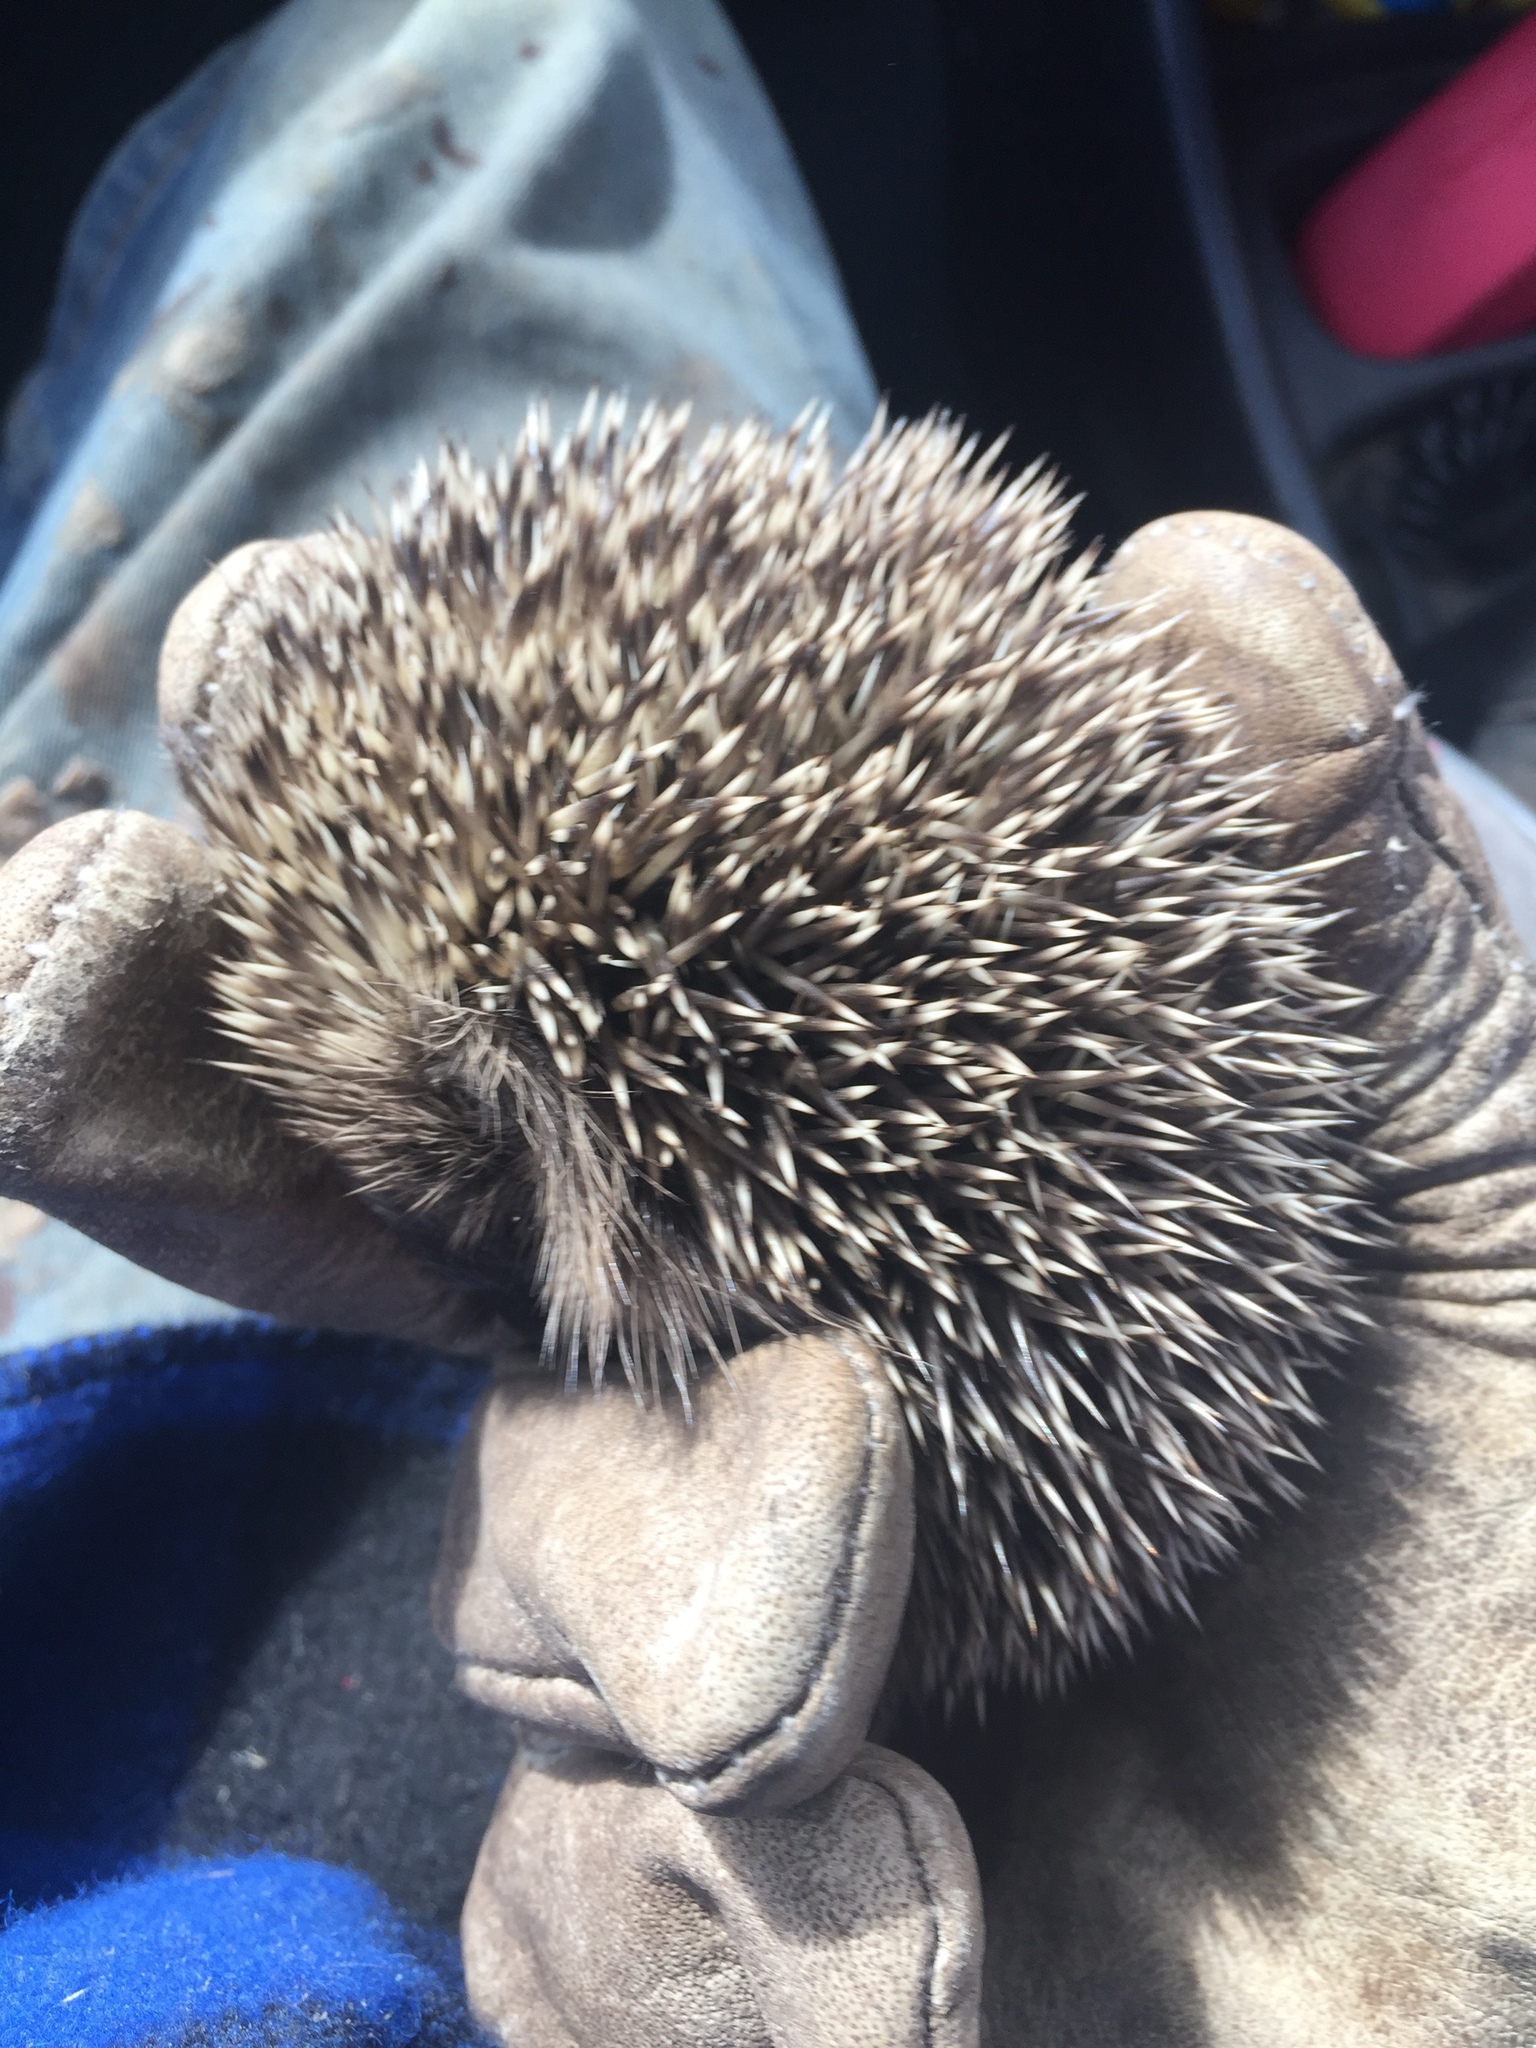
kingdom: Animalia
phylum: Chordata
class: Mammalia
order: Erinaceomorpha
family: Erinaceidae
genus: Erinaceus
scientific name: Erinaceus europaeus
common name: West european hedgehog
